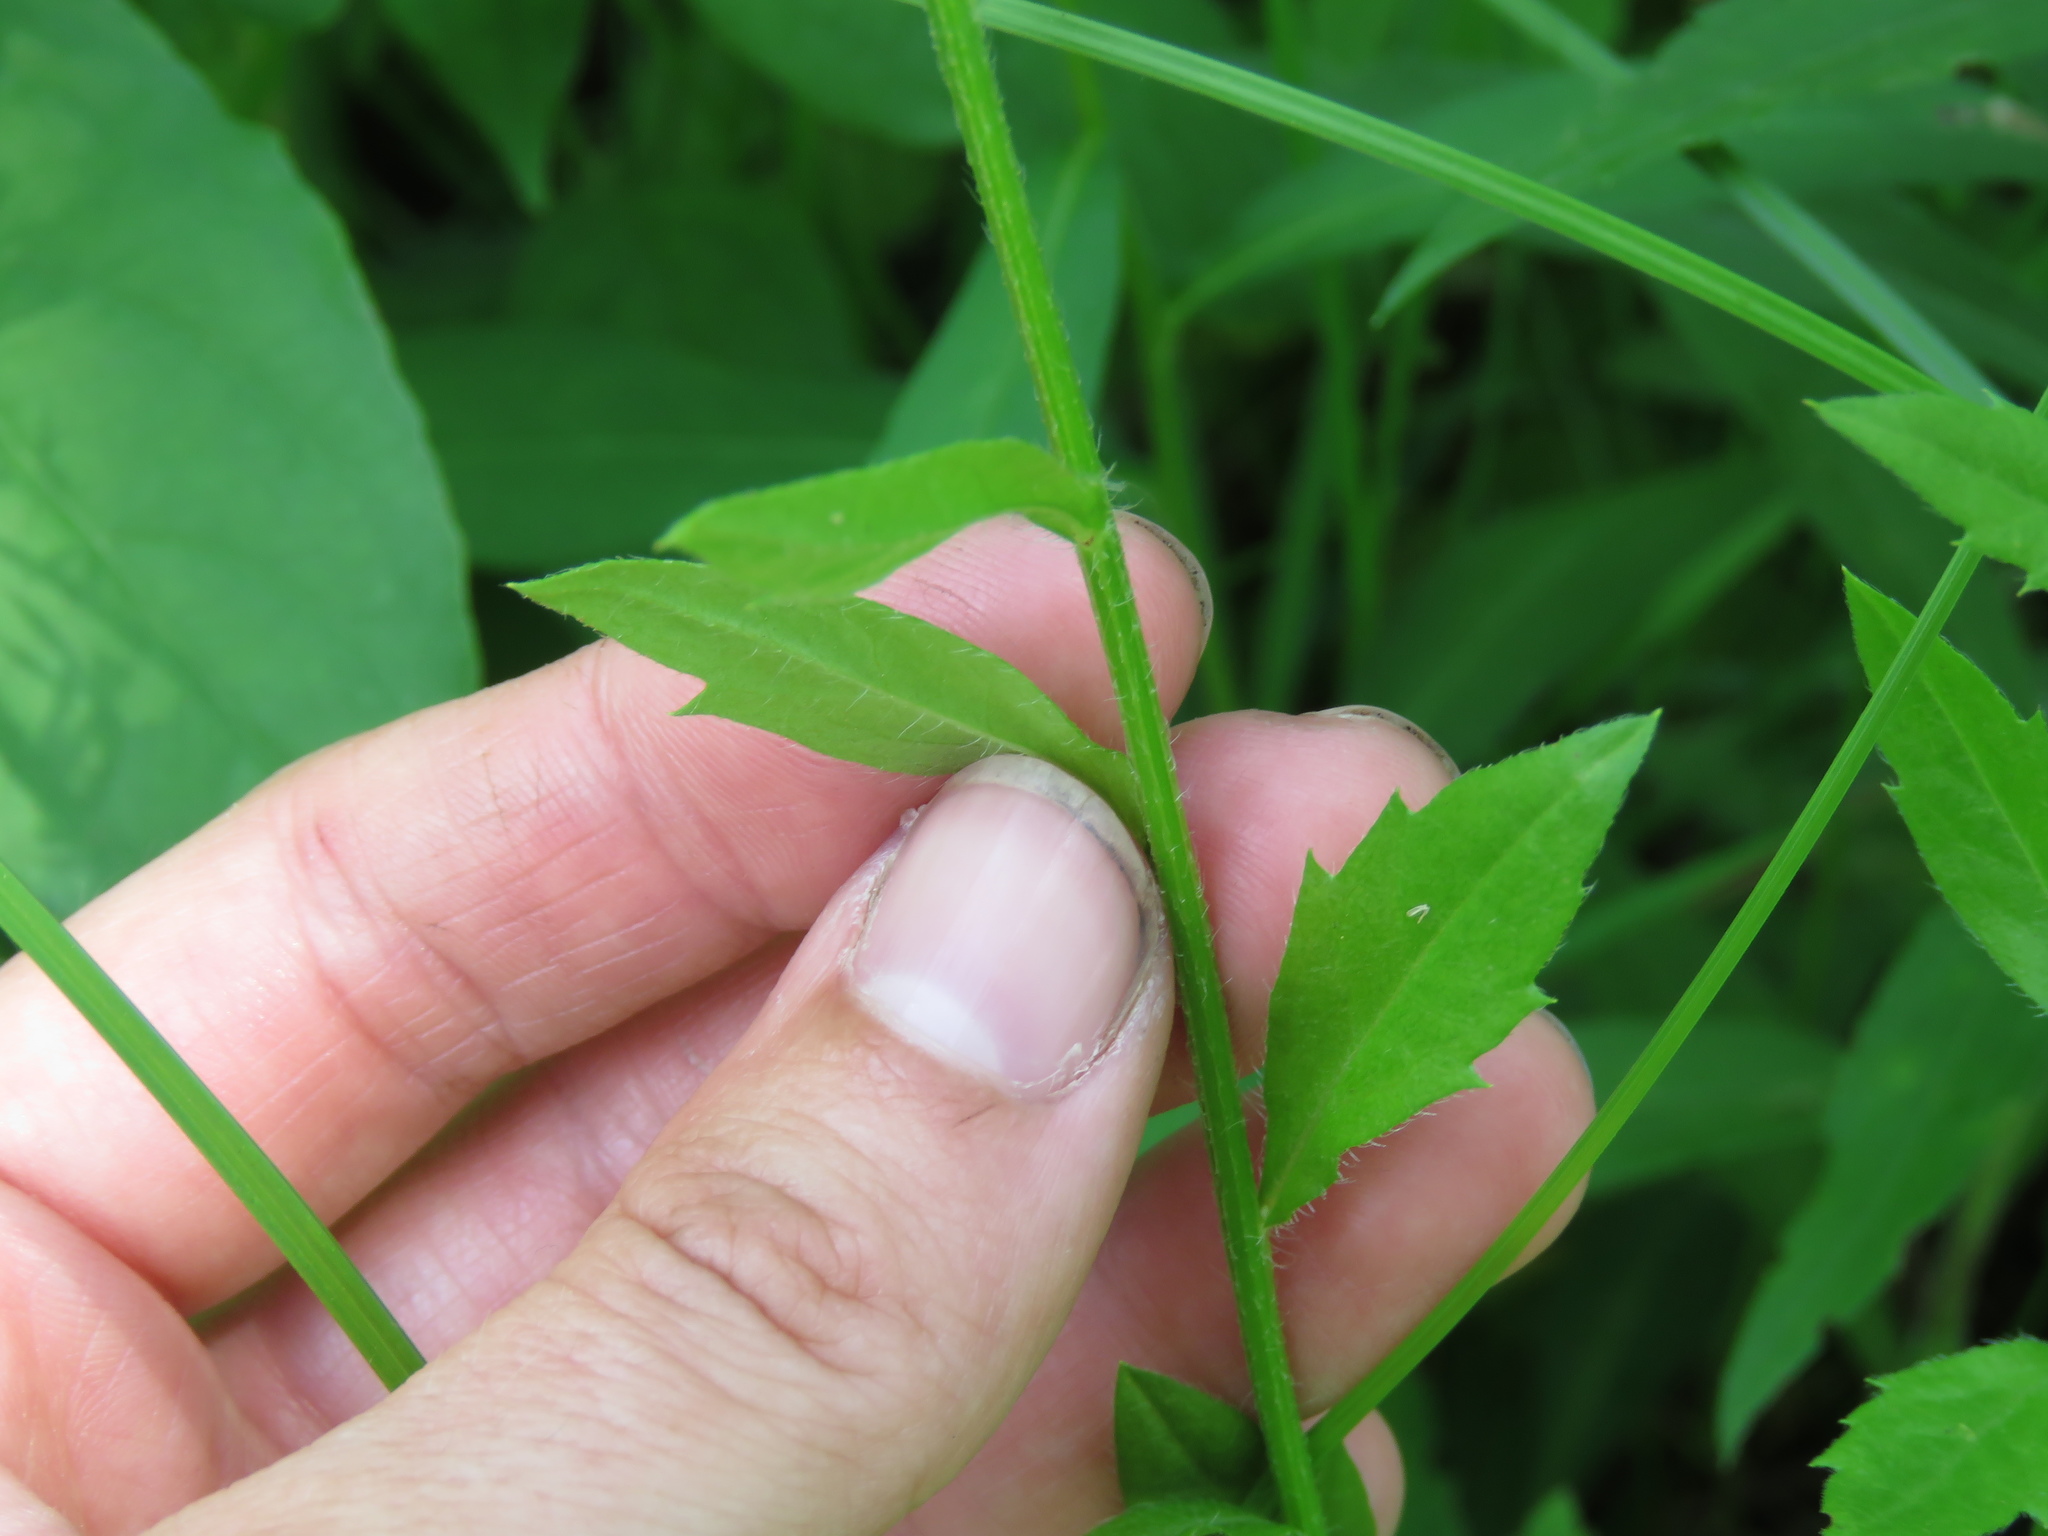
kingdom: Plantae
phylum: Tracheophyta
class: Magnoliopsida
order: Asterales
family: Asteraceae
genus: Erigeron
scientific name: Erigeron annuus
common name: Tall fleabane
